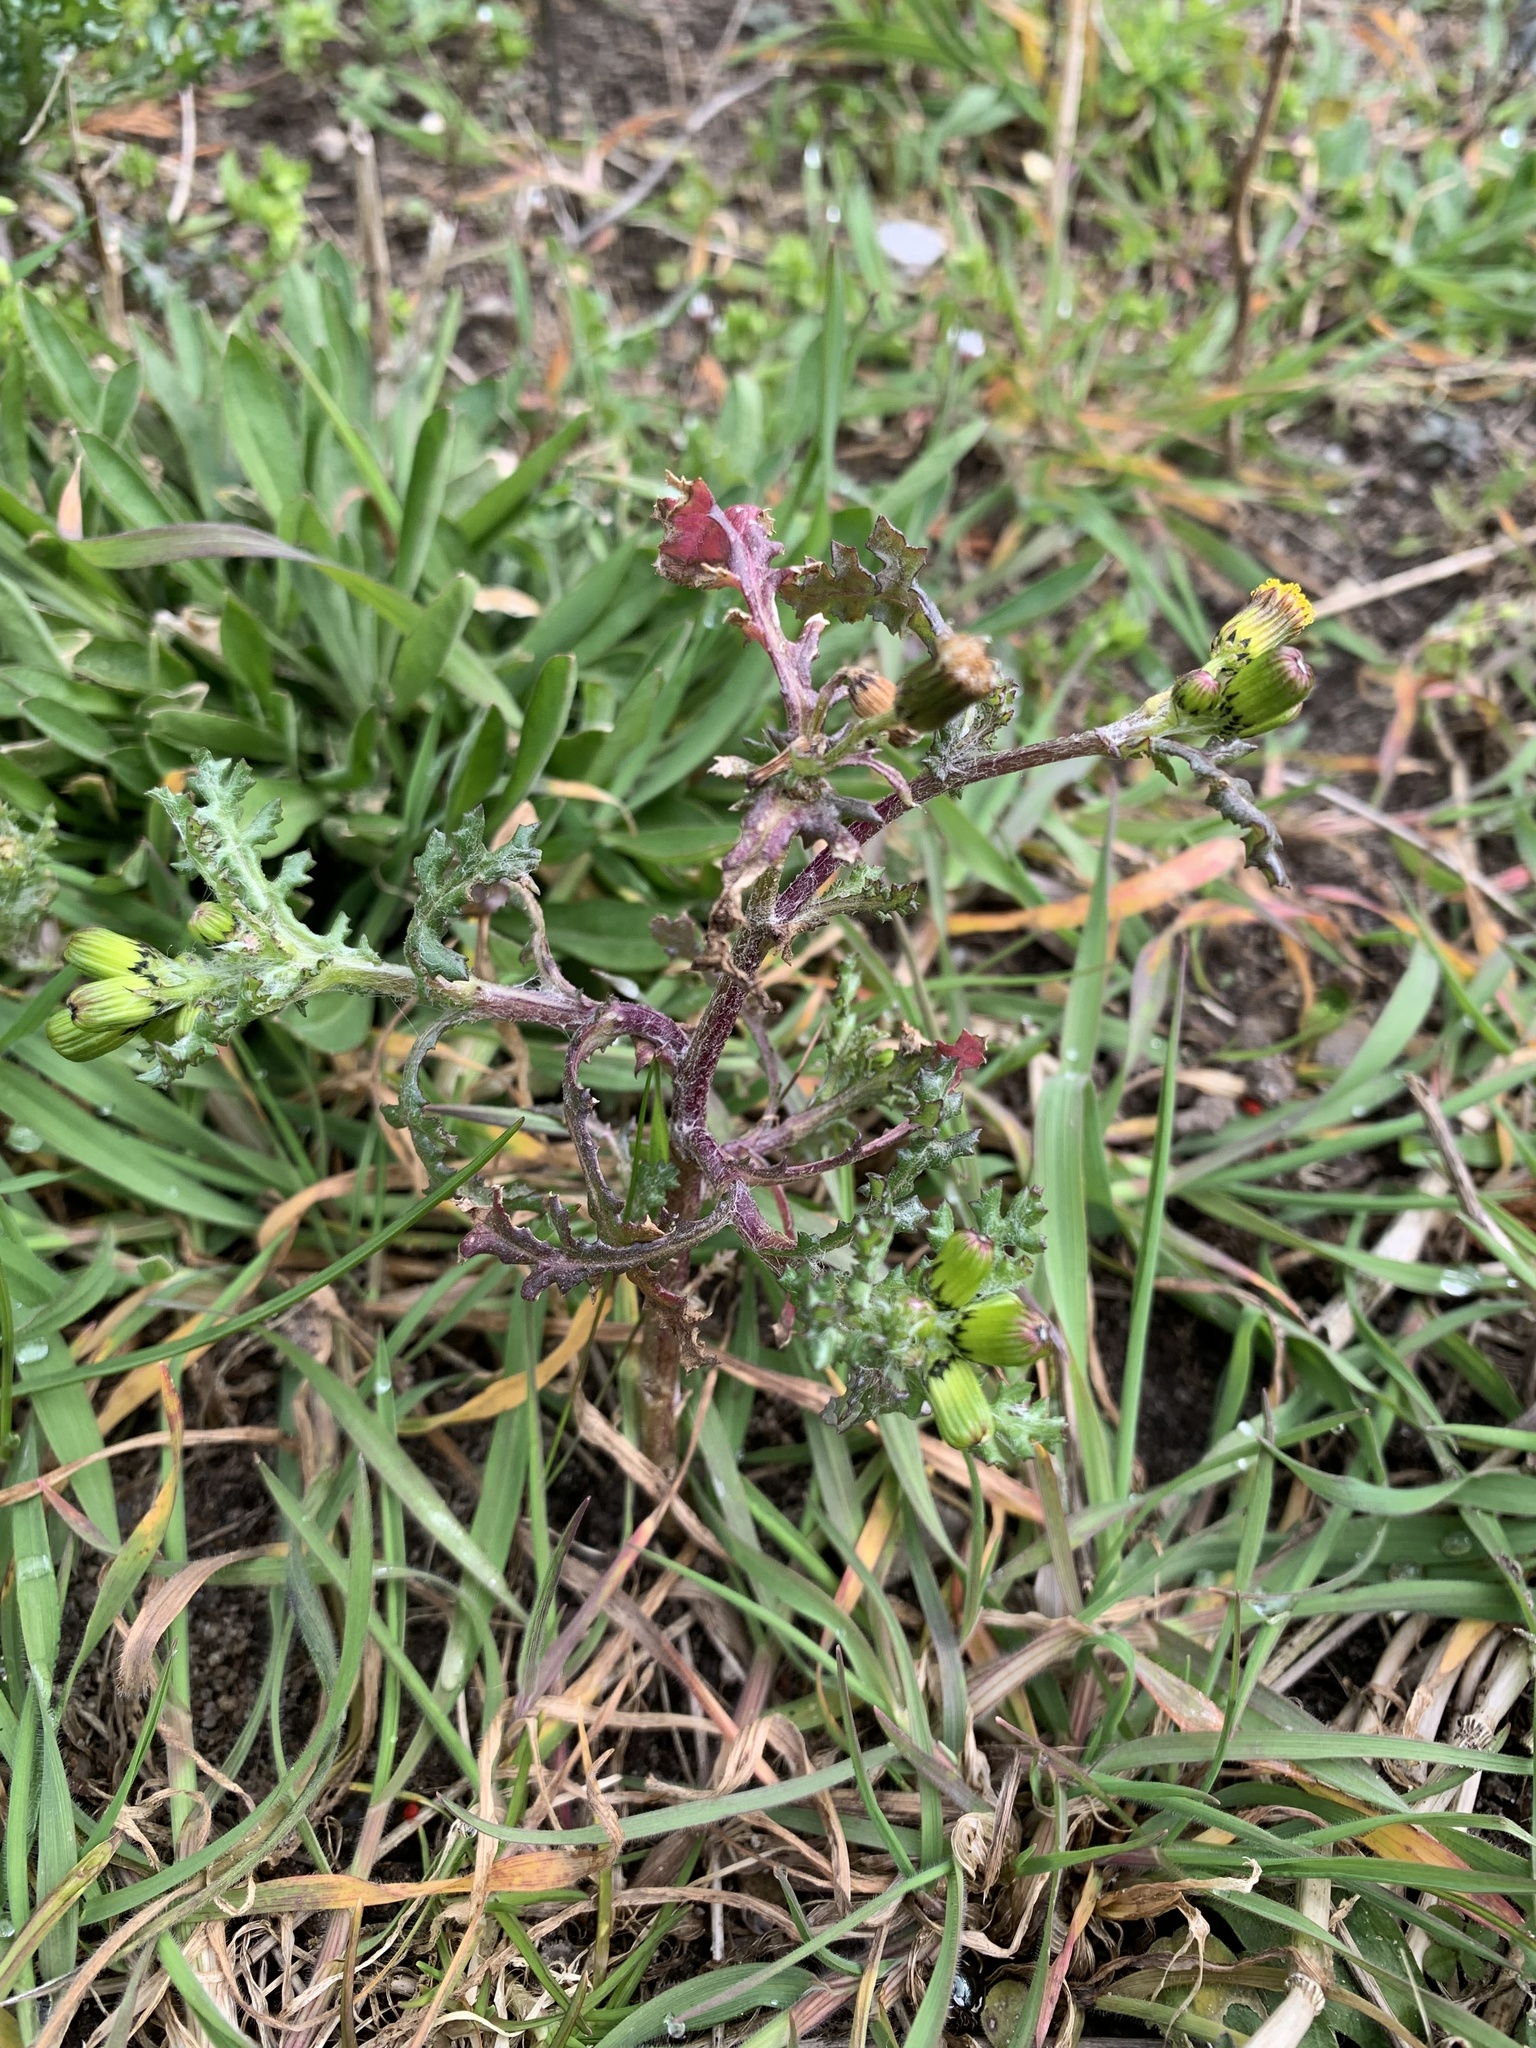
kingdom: Plantae
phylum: Tracheophyta
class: Magnoliopsida
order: Asterales
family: Asteraceae
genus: Senecio
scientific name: Senecio vulgaris
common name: Old-man-in-the-spring
